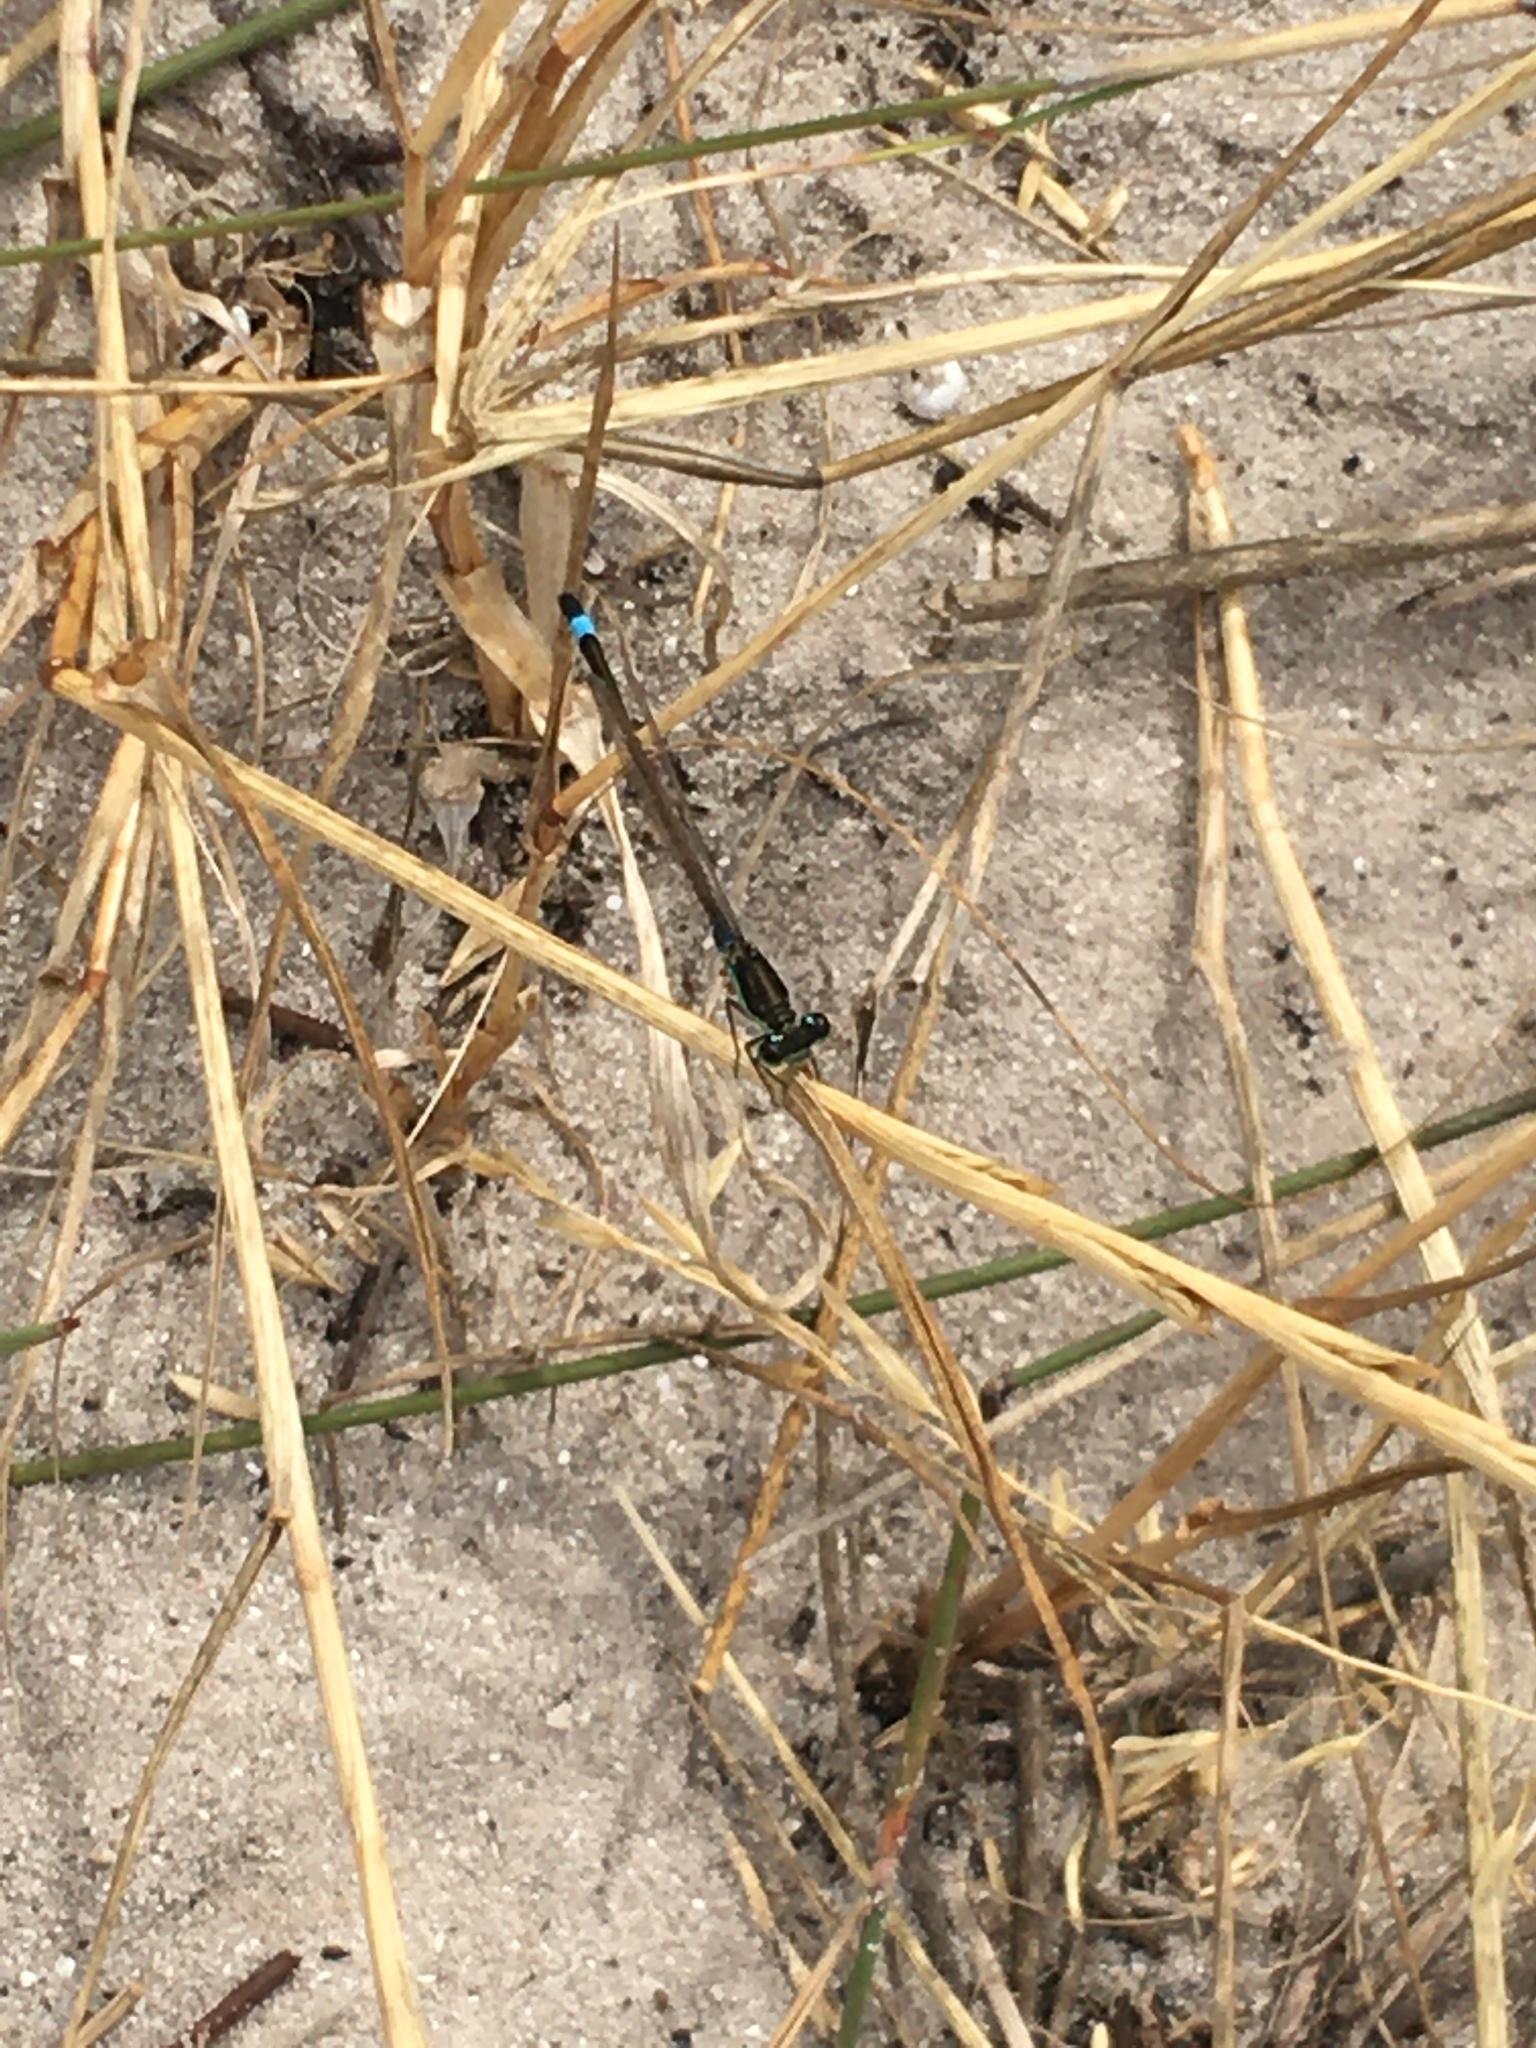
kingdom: Animalia
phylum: Arthropoda
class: Insecta
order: Odonata
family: Coenagrionidae
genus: Ischnura
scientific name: Ischnura senegalensis
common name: Tropical bluetail
